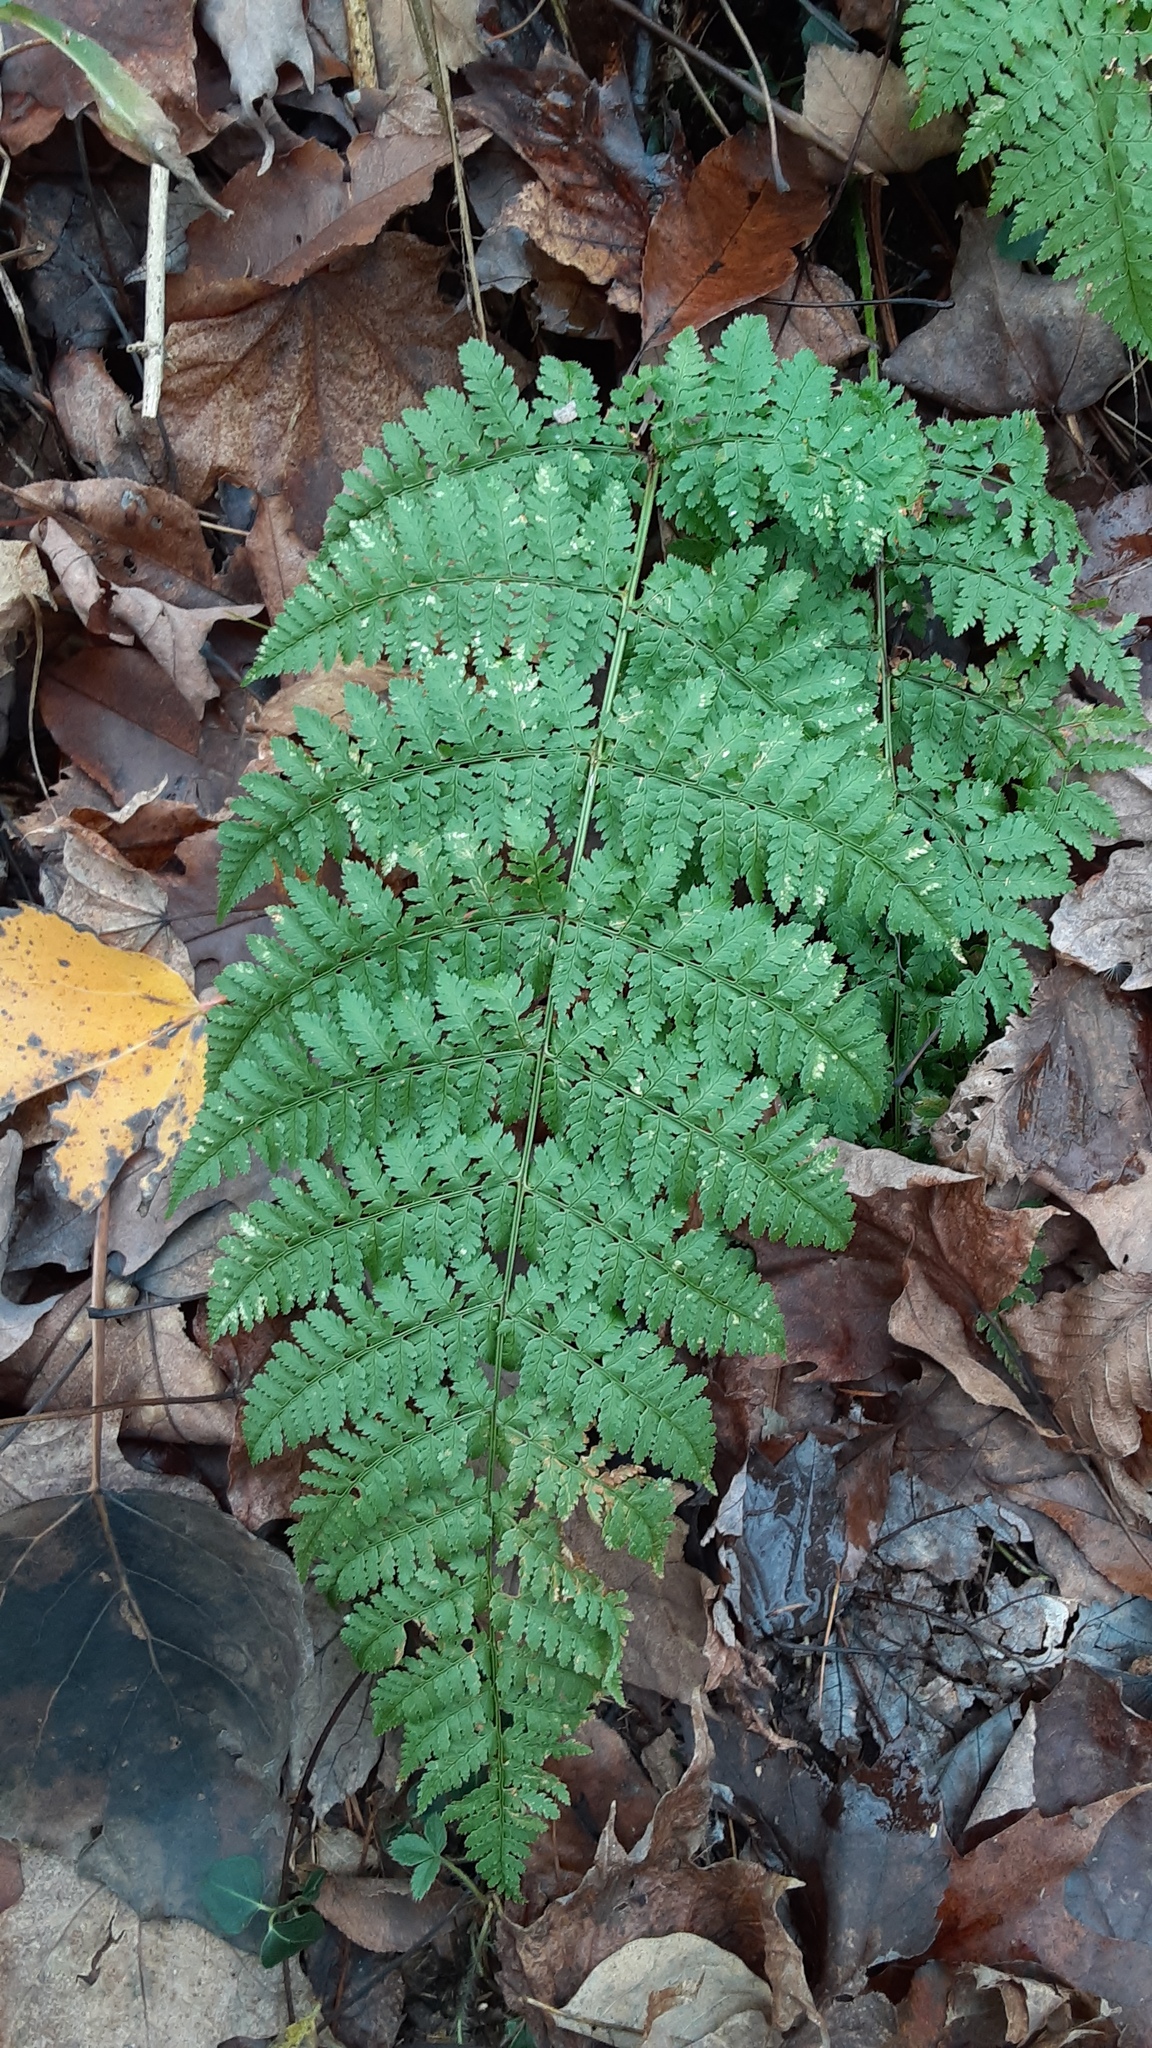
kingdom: Plantae
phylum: Tracheophyta
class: Polypodiopsida
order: Polypodiales
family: Dryopteridaceae
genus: Dryopteris
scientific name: Dryopteris intermedia
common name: Evergreen wood fern
